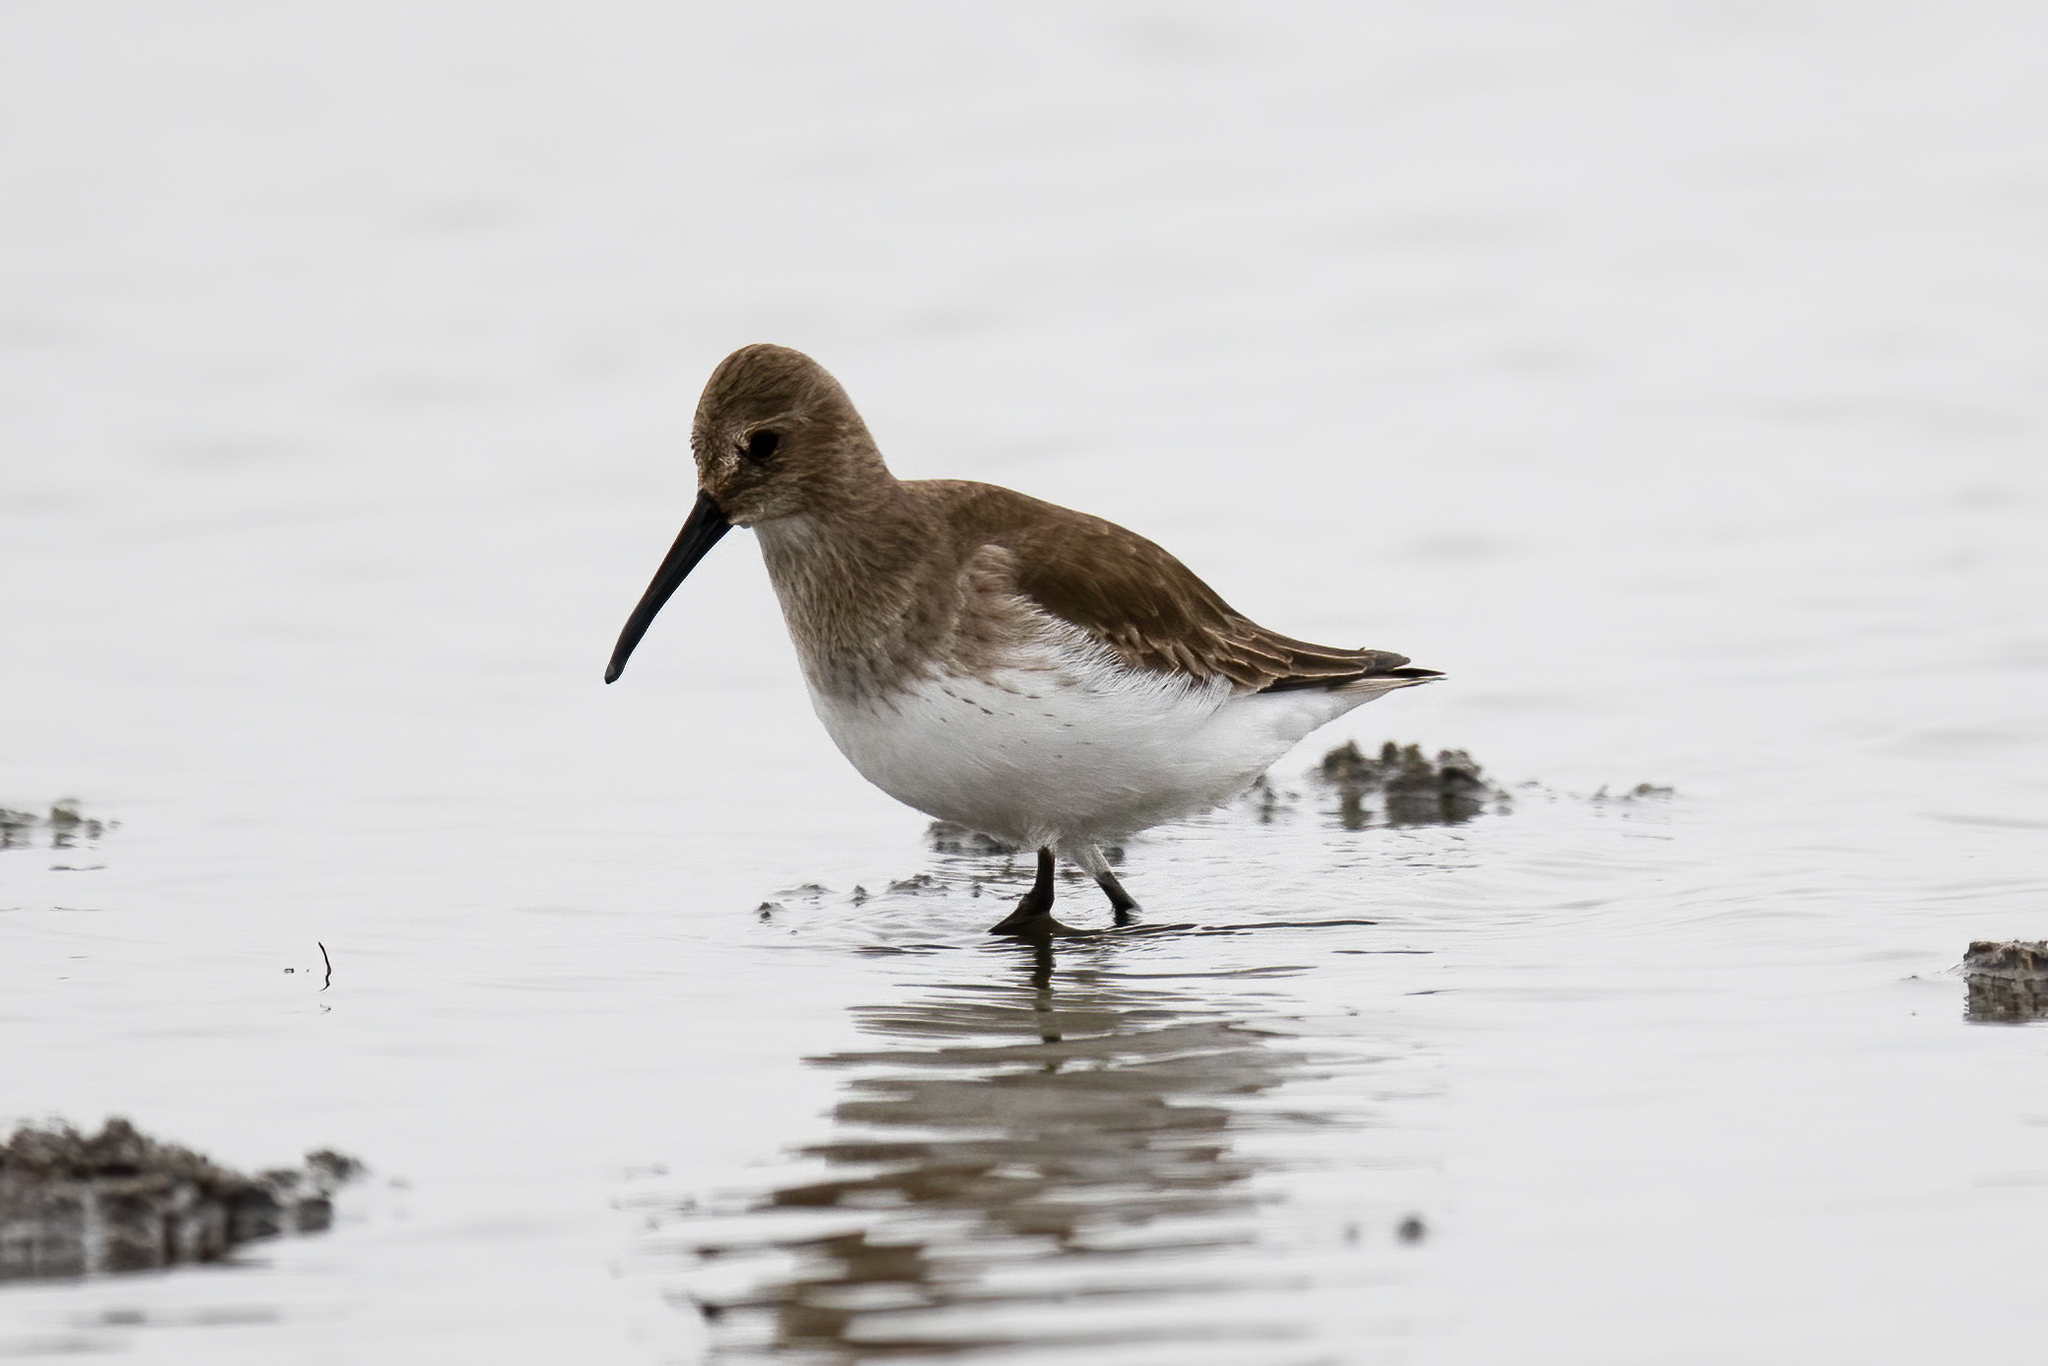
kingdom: Animalia
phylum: Chordata
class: Aves
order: Charadriiformes
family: Scolopacidae
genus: Calidris
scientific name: Calidris alpina
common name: Dunlin
